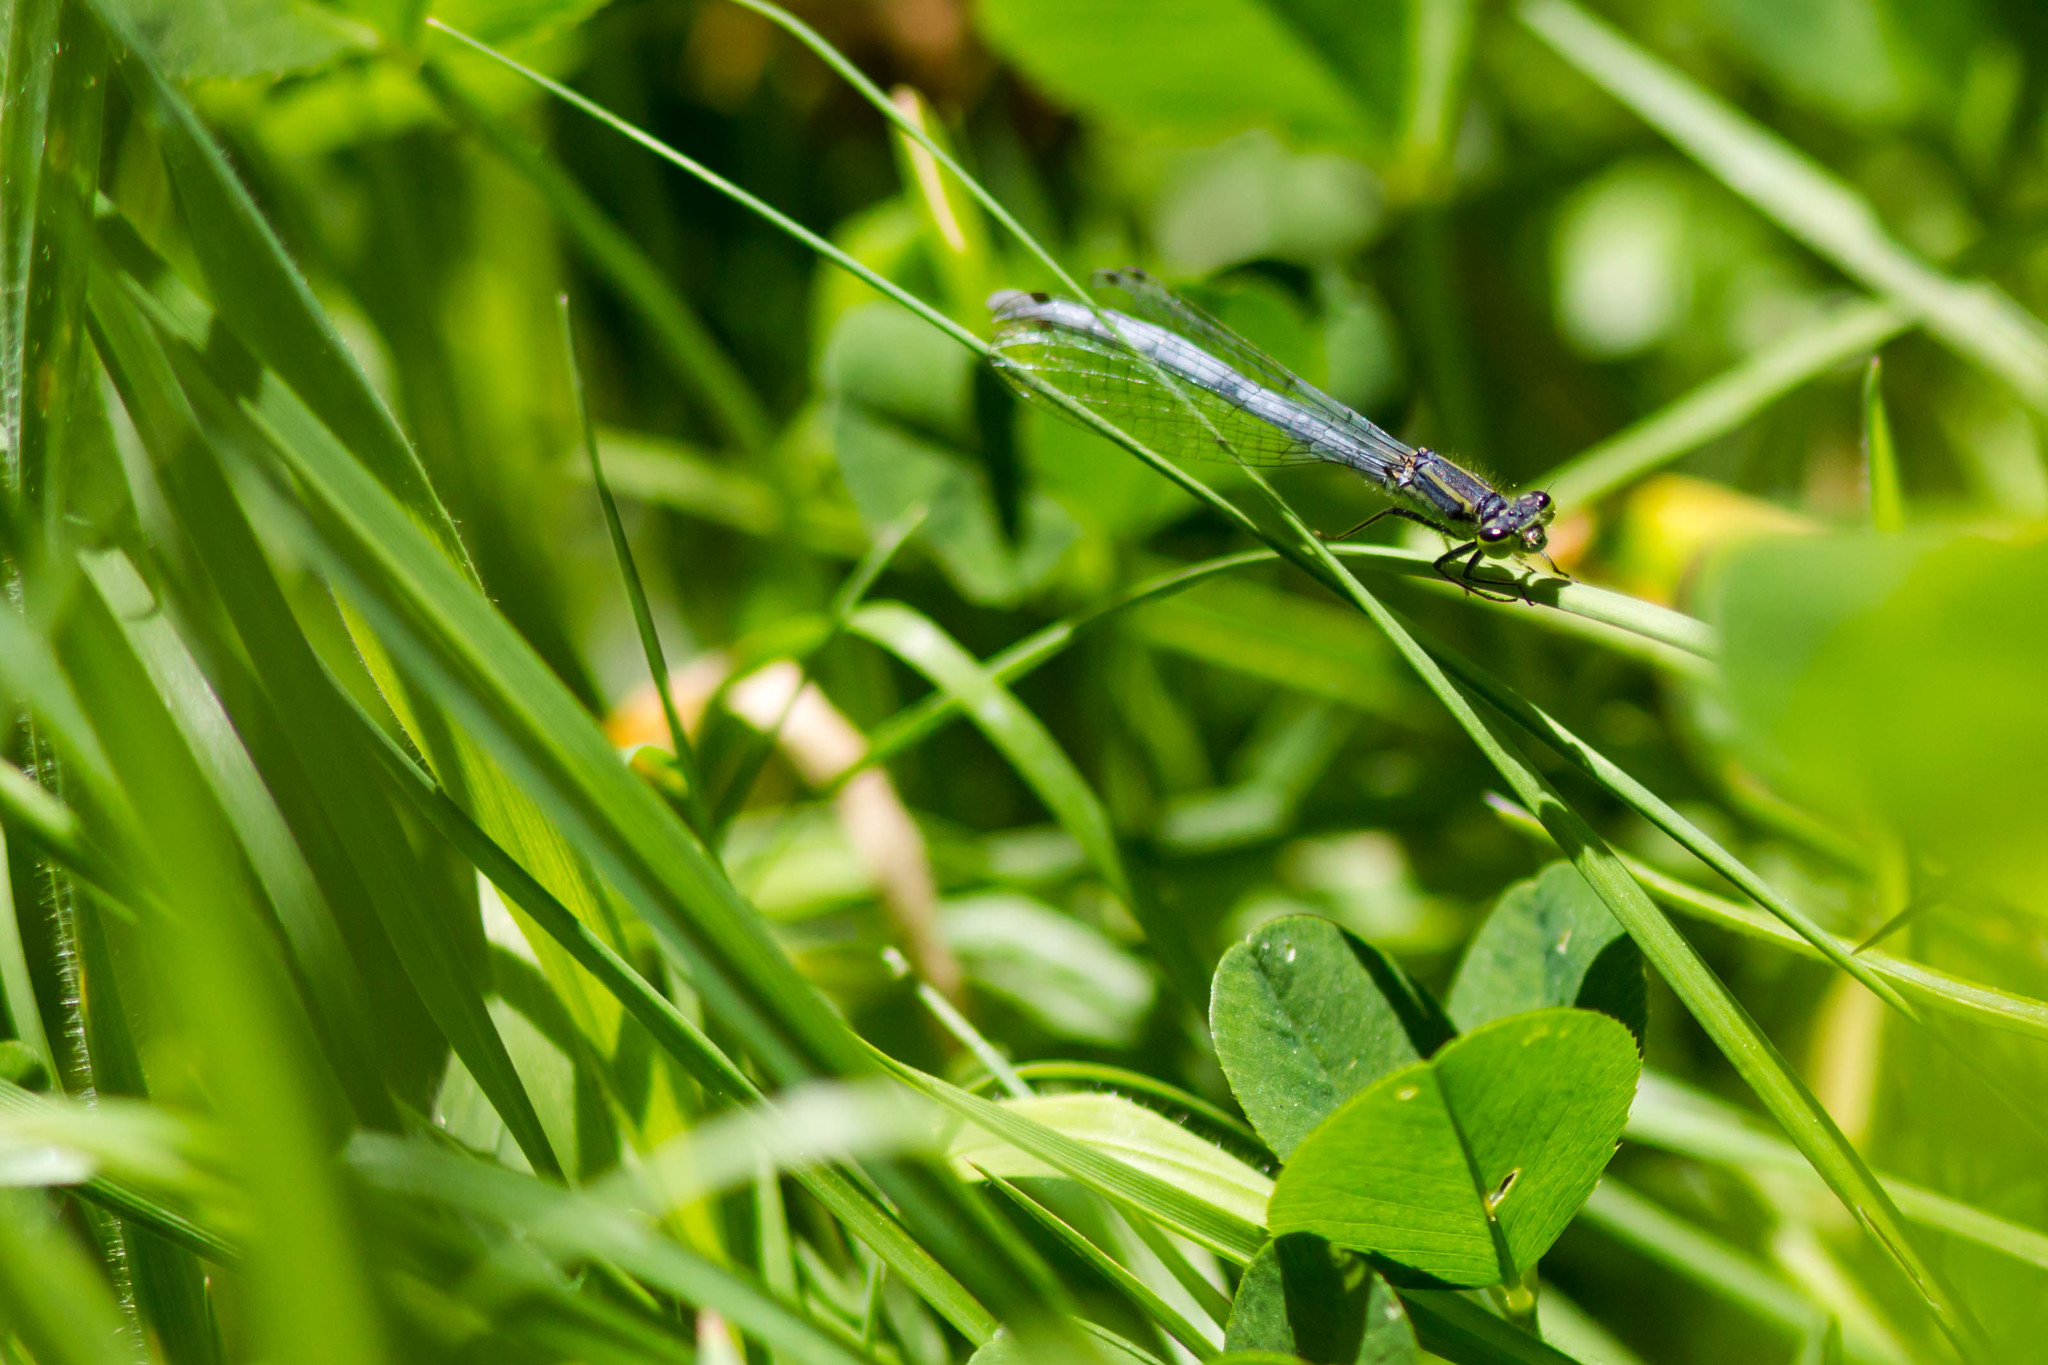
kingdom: Animalia
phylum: Arthropoda
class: Insecta
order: Odonata
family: Coenagrionidae
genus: Ischnura
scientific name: Ischnura perparva
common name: Western forktail
